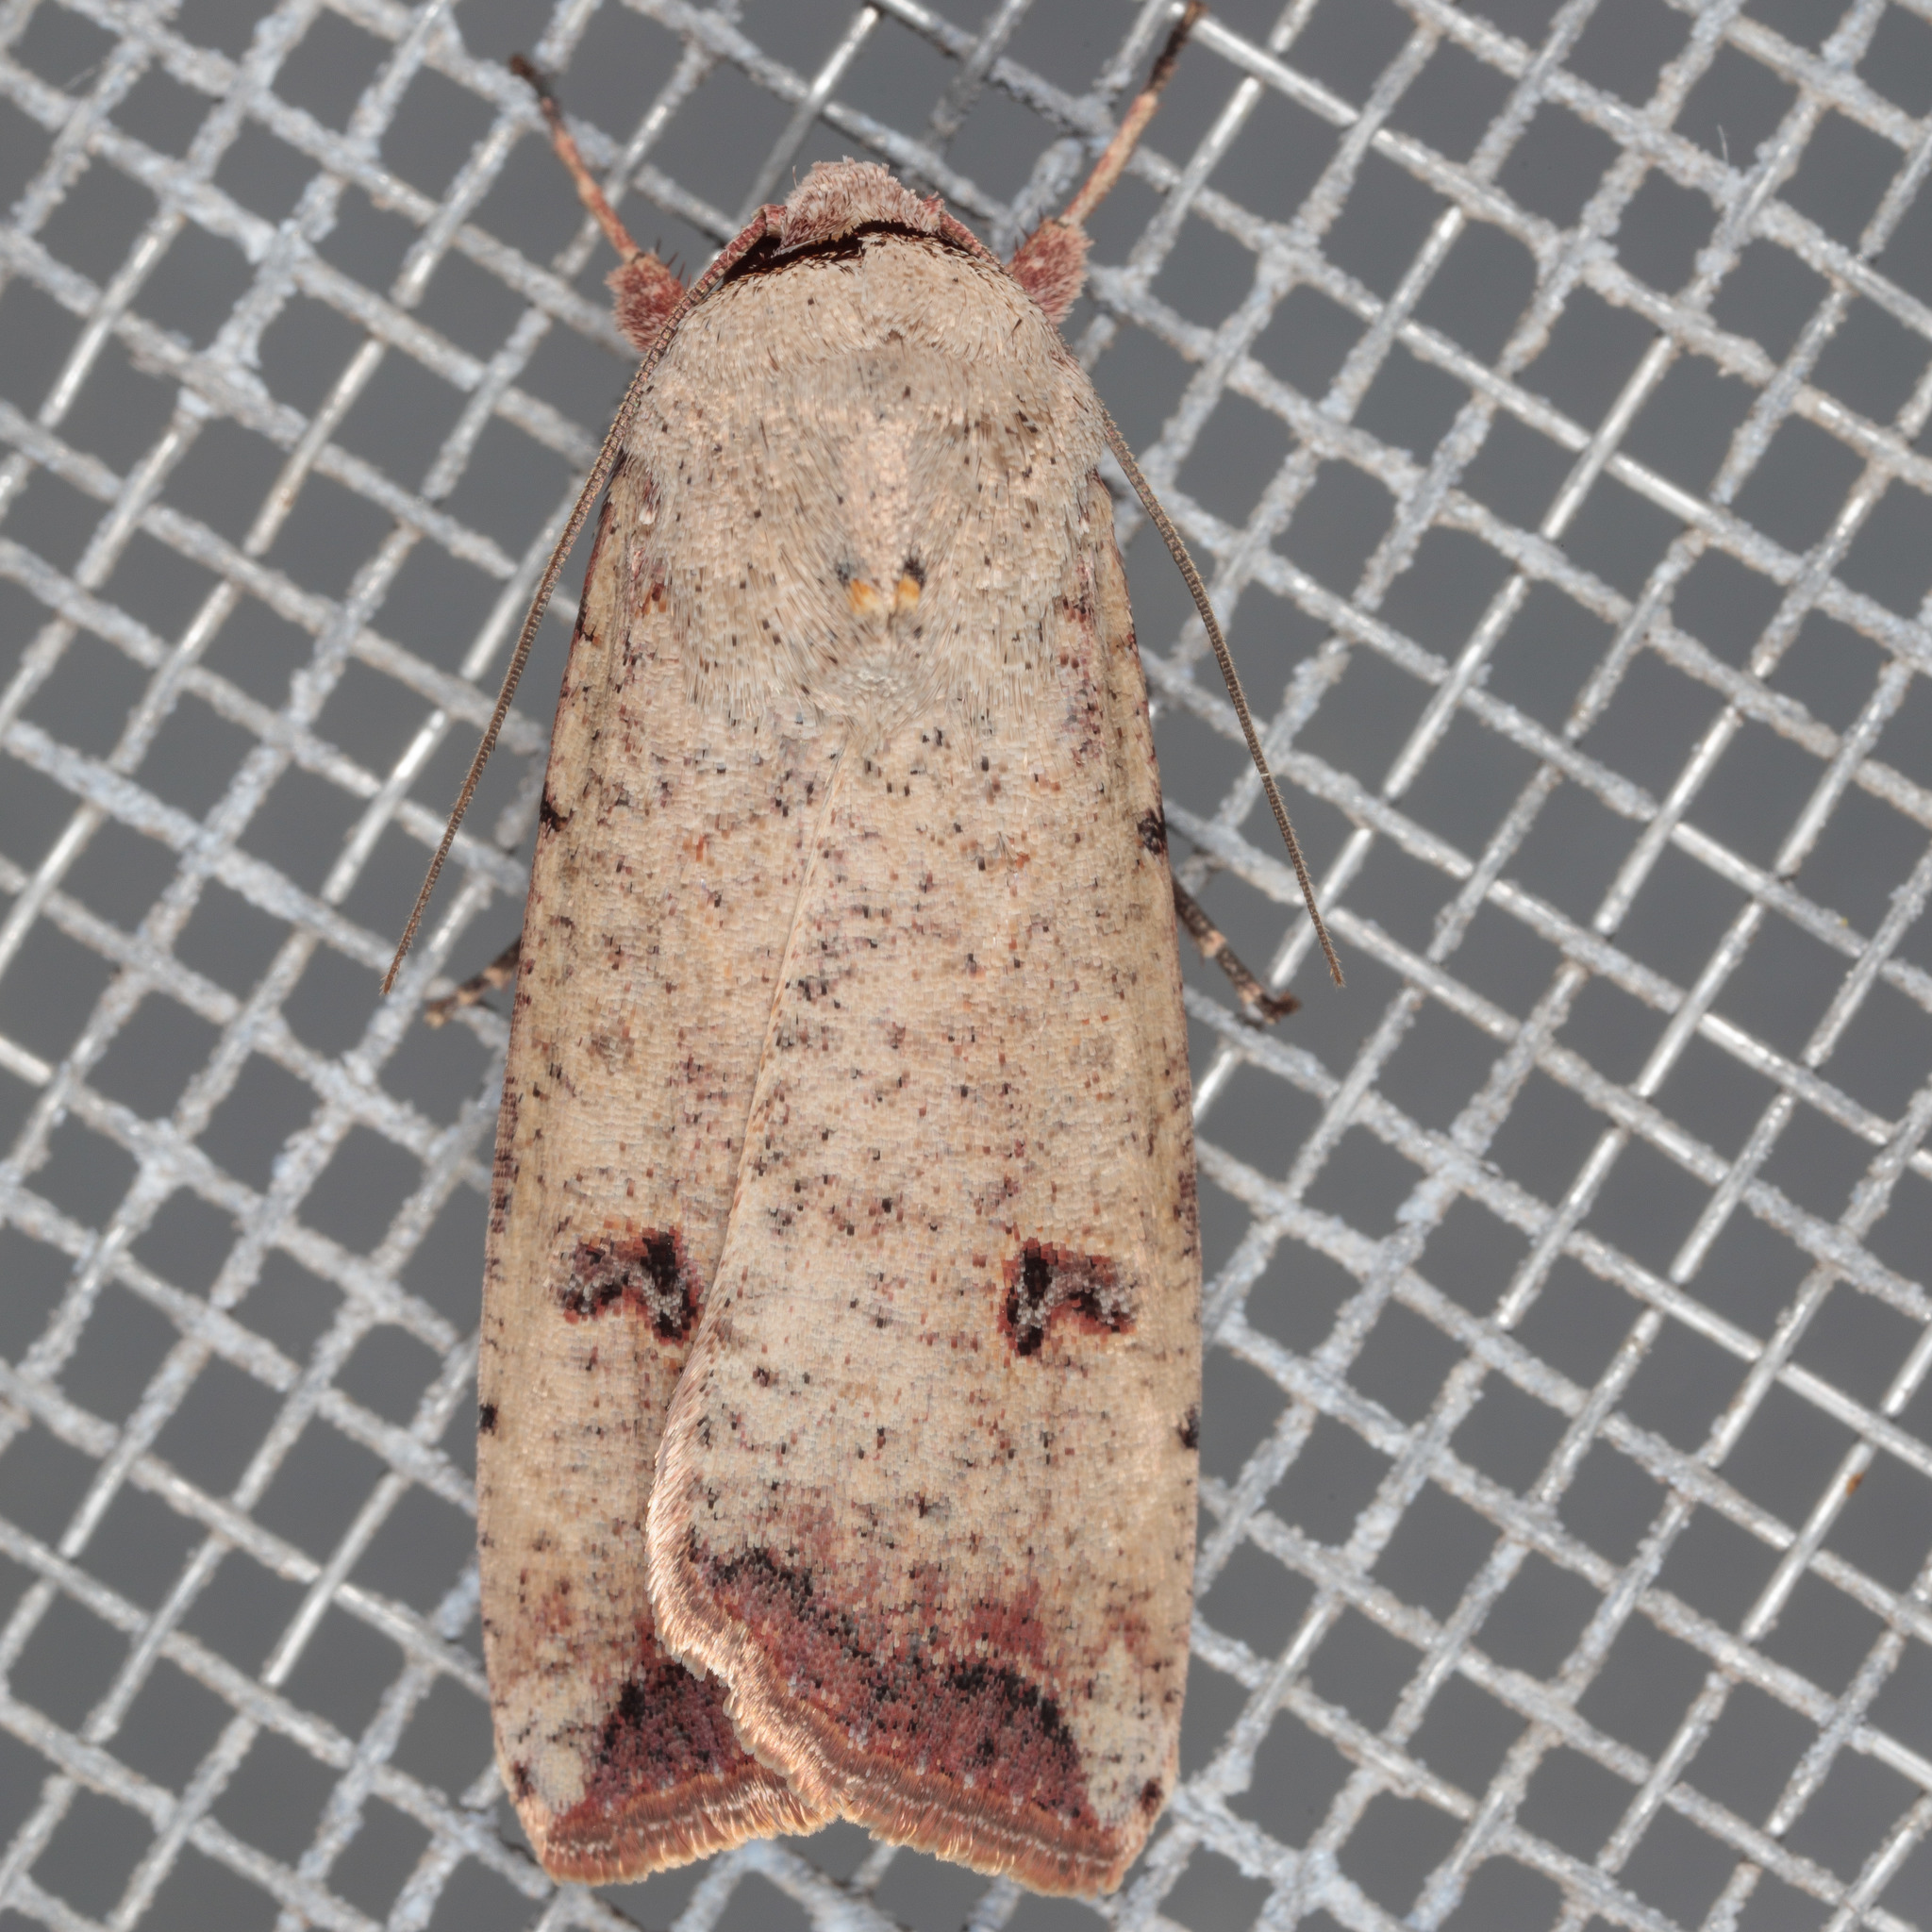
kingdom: Animalia
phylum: Arthropoda
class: Insecta
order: Lepidoptera
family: Noctuidae
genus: Anicla
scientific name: Anicla infecta
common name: Green cutworm
